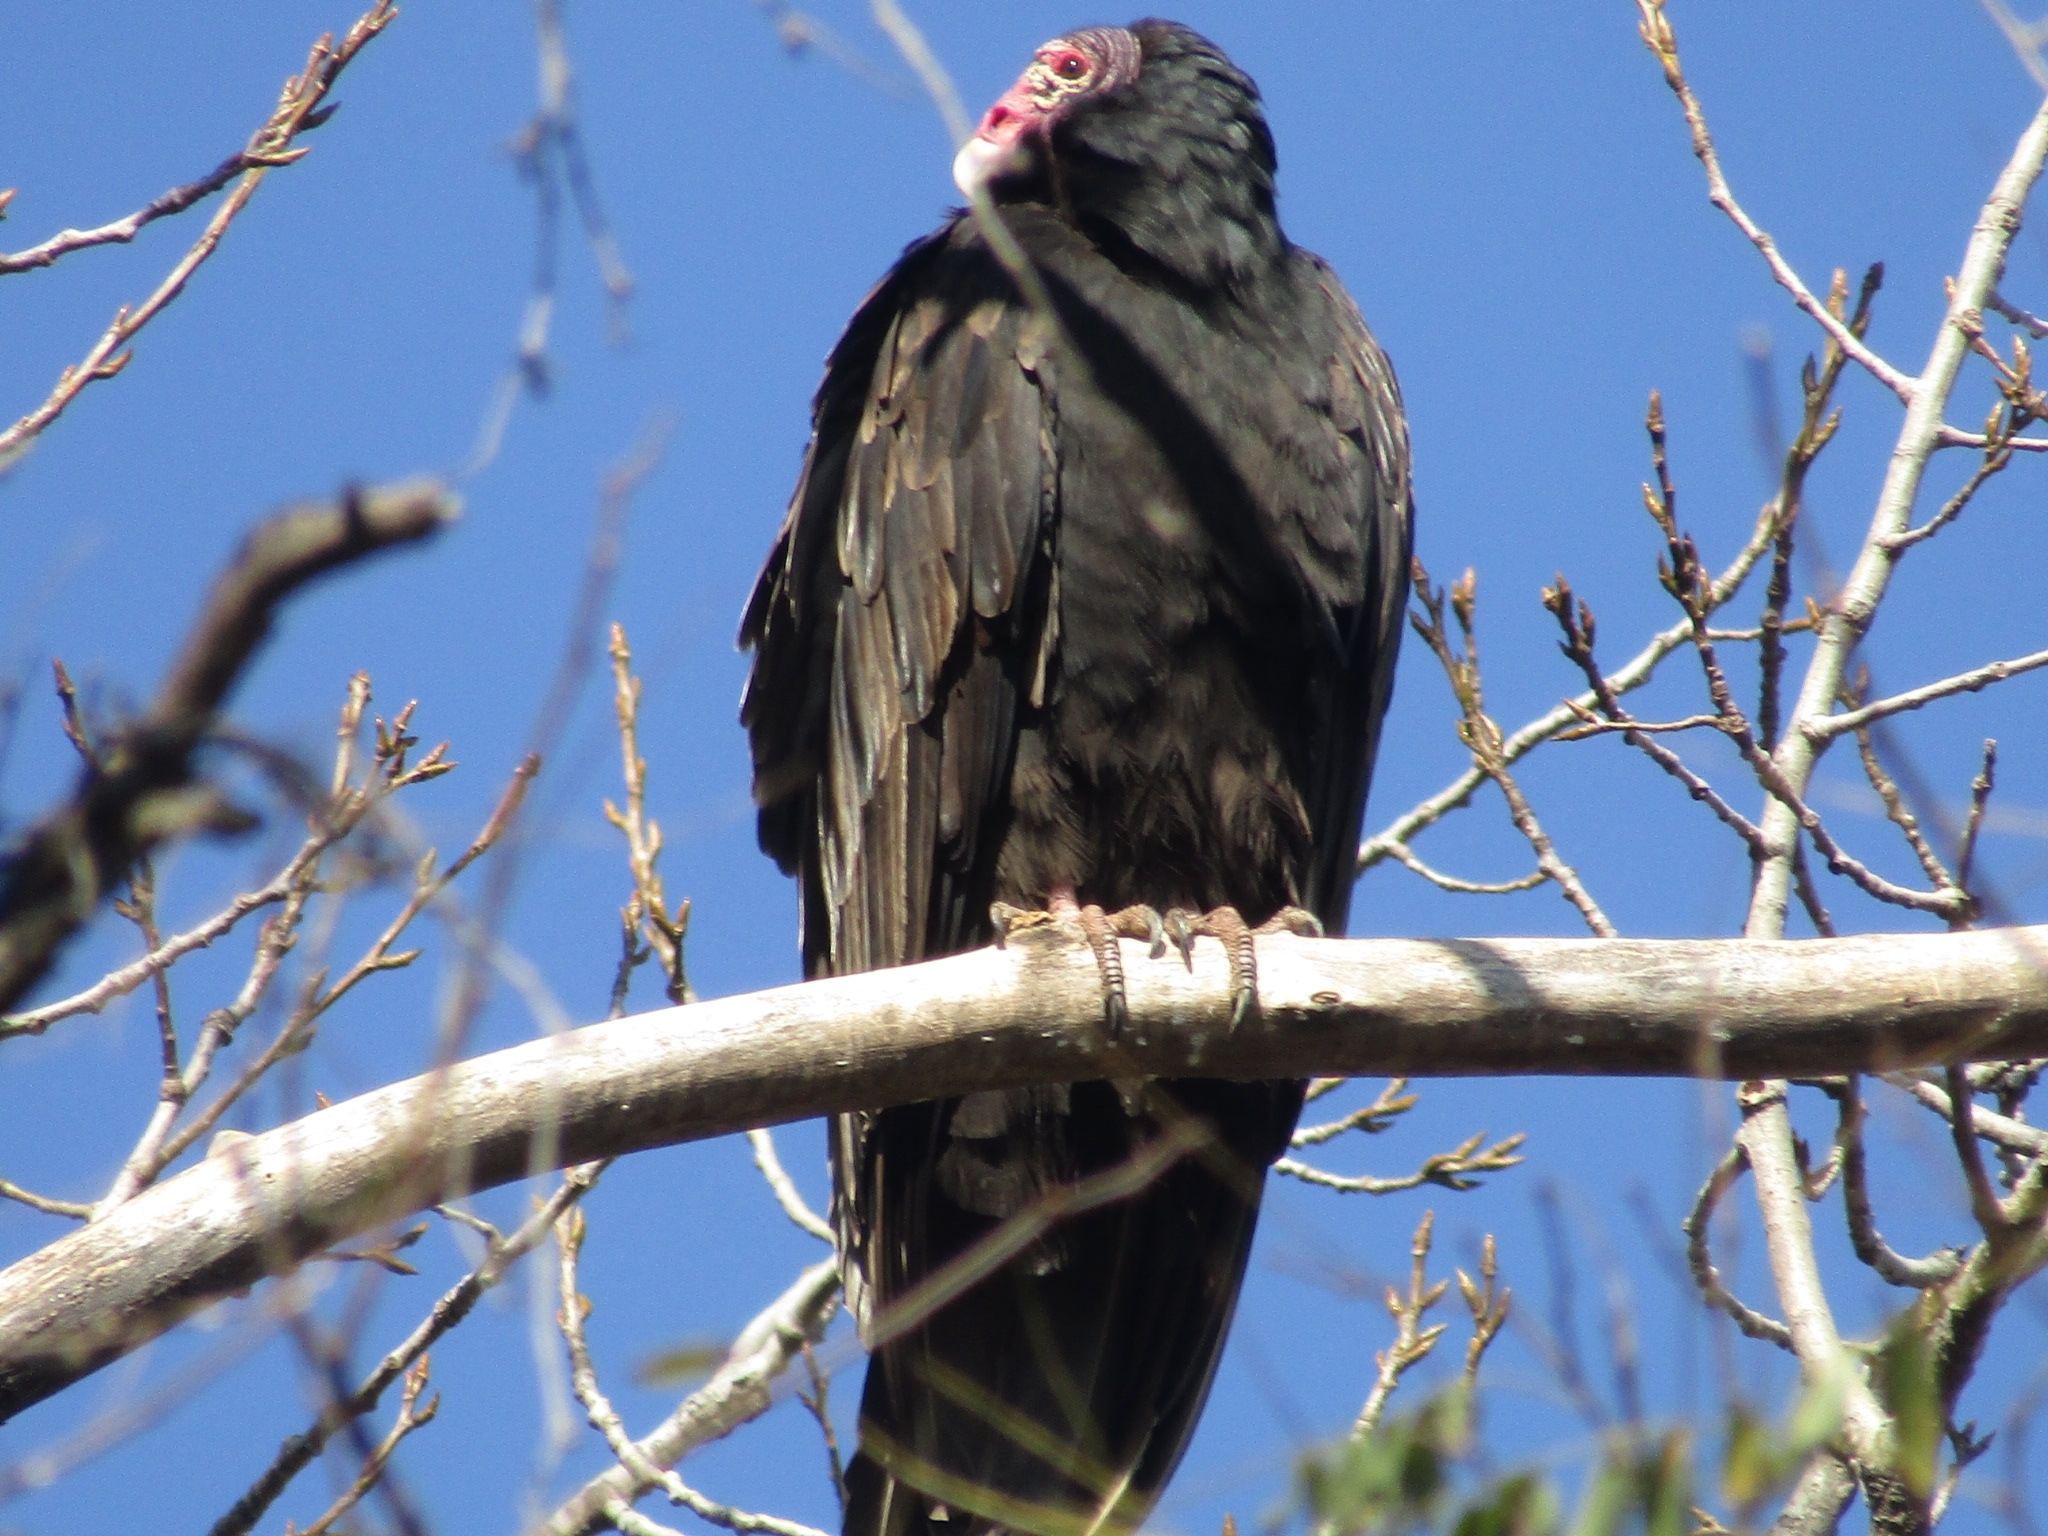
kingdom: Animalia
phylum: Chordata
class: Aves
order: Accipitriformes
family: Cathartidae
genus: Cathartes
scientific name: Cathartes aura
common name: Turkey vulture
